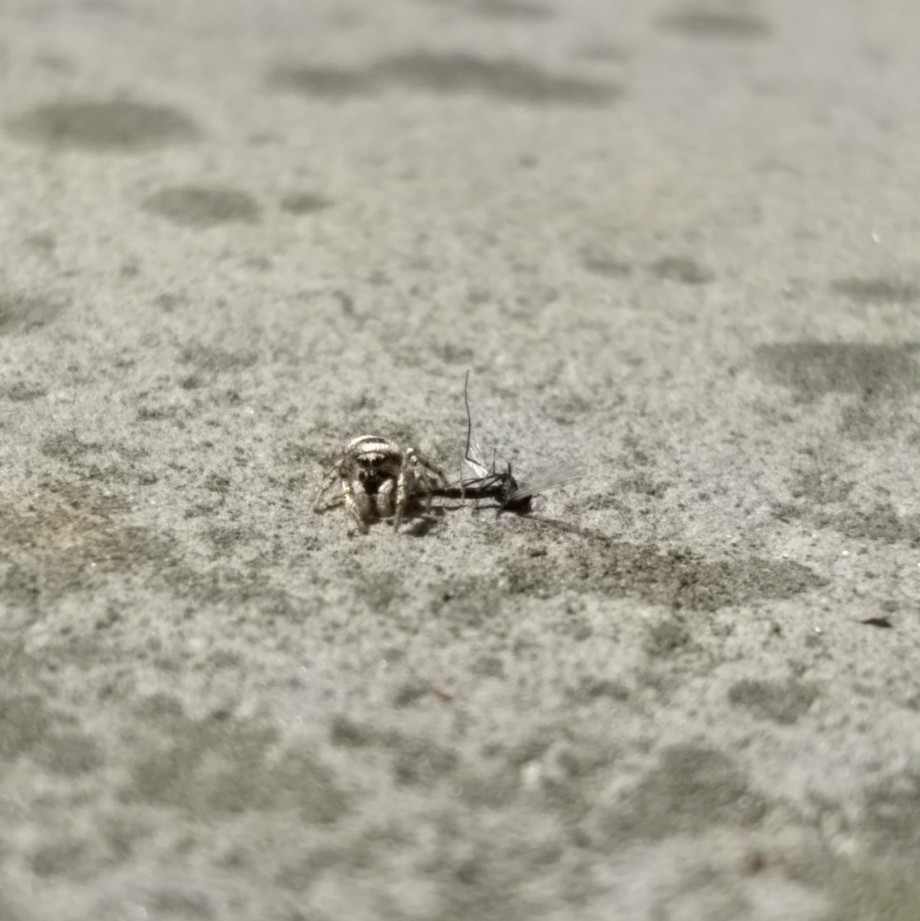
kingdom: Animalia
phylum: Arthropoda
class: Arachnida
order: Araneae
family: Salticidae
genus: Salticus
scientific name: Salticus scenicus
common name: Zebra jumper
